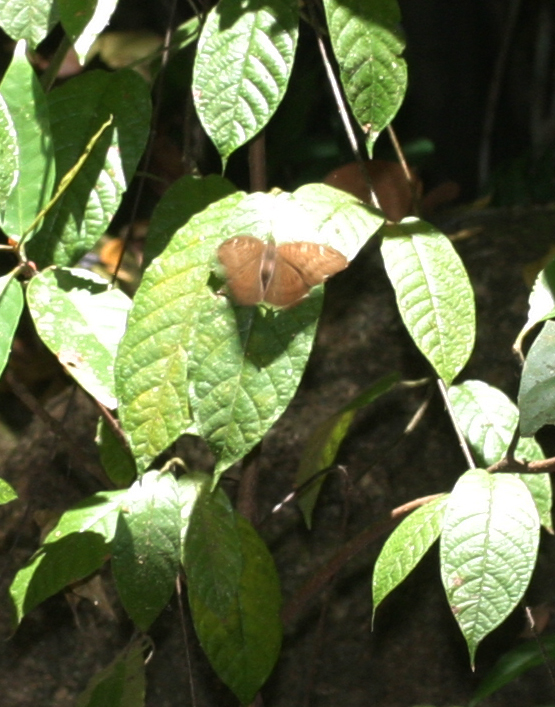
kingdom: Animalia
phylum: Arthropoda
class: Insecta
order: Lepidoptera
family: Nymphalidae
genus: Tanaecia
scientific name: Tanaecia julii
